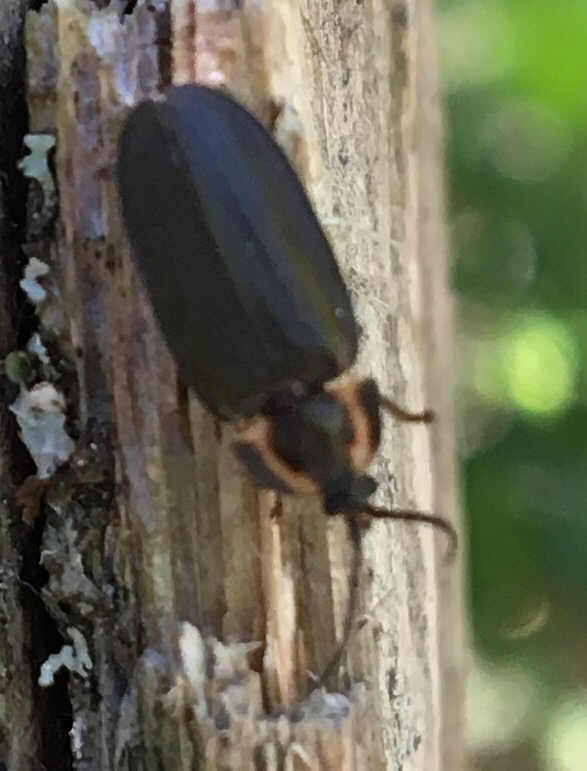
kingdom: Animalia
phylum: Arthropoda
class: Insecta
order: Coleoptera
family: Lampyridae
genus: Photinus
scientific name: Photinus corrusca
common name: Winter firefly
